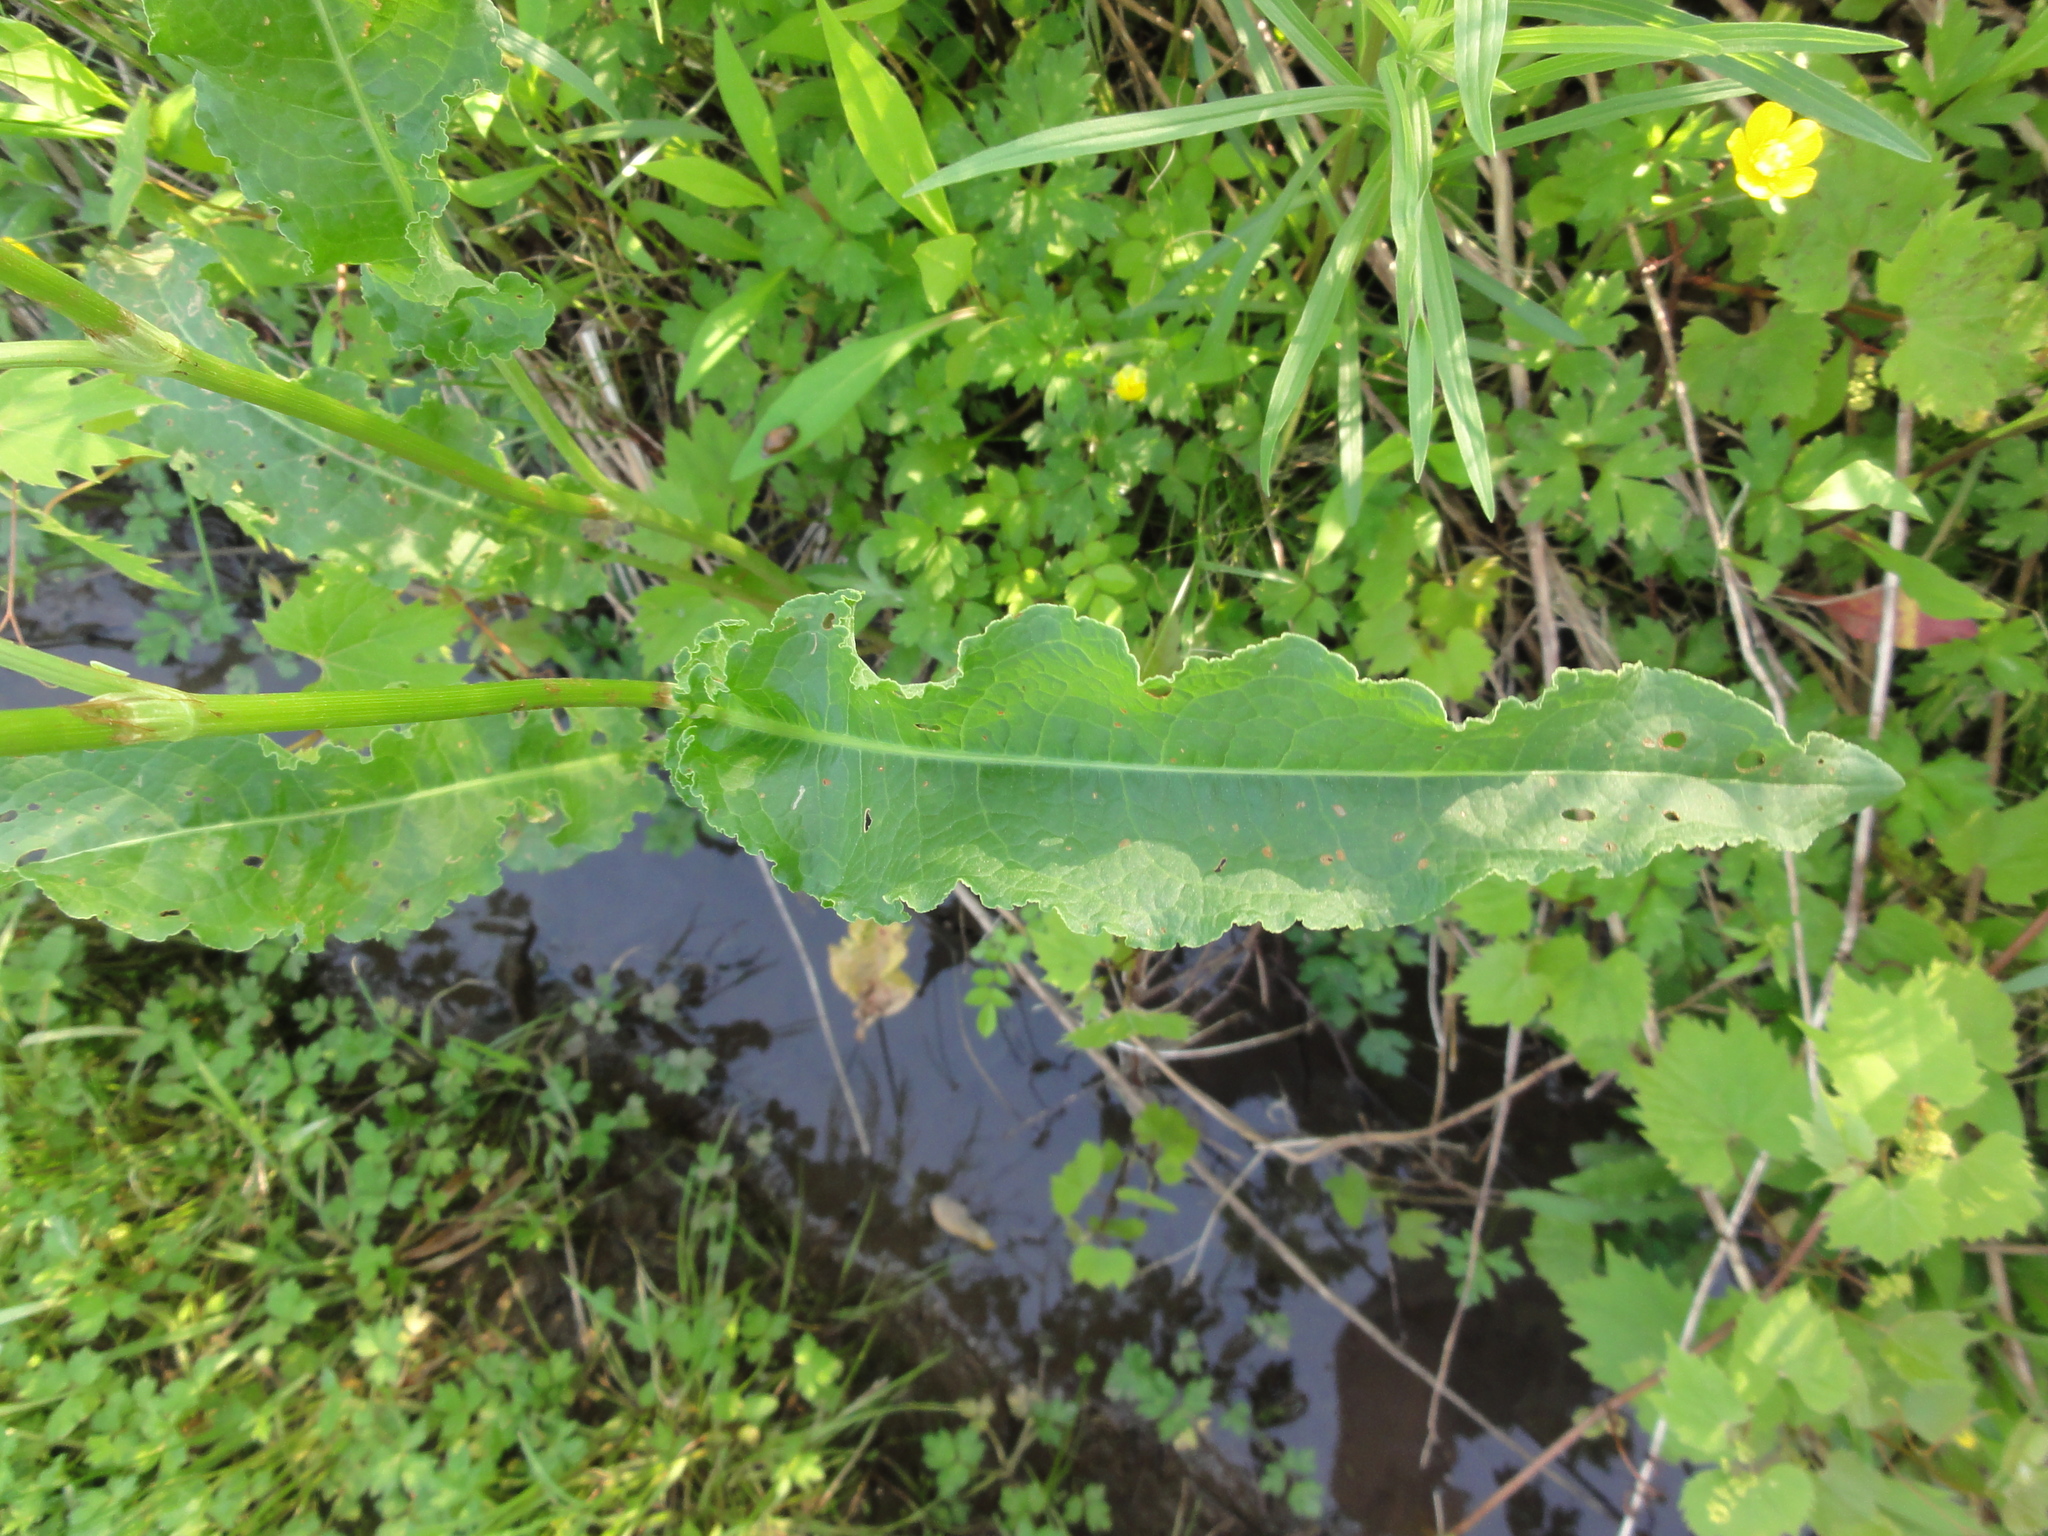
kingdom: Plantae
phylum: Tracheophyta
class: Magnoliopsida
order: Caryophyllales
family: Polygonaceae
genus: Rumex
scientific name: Rumex crispus
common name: Curled dock
